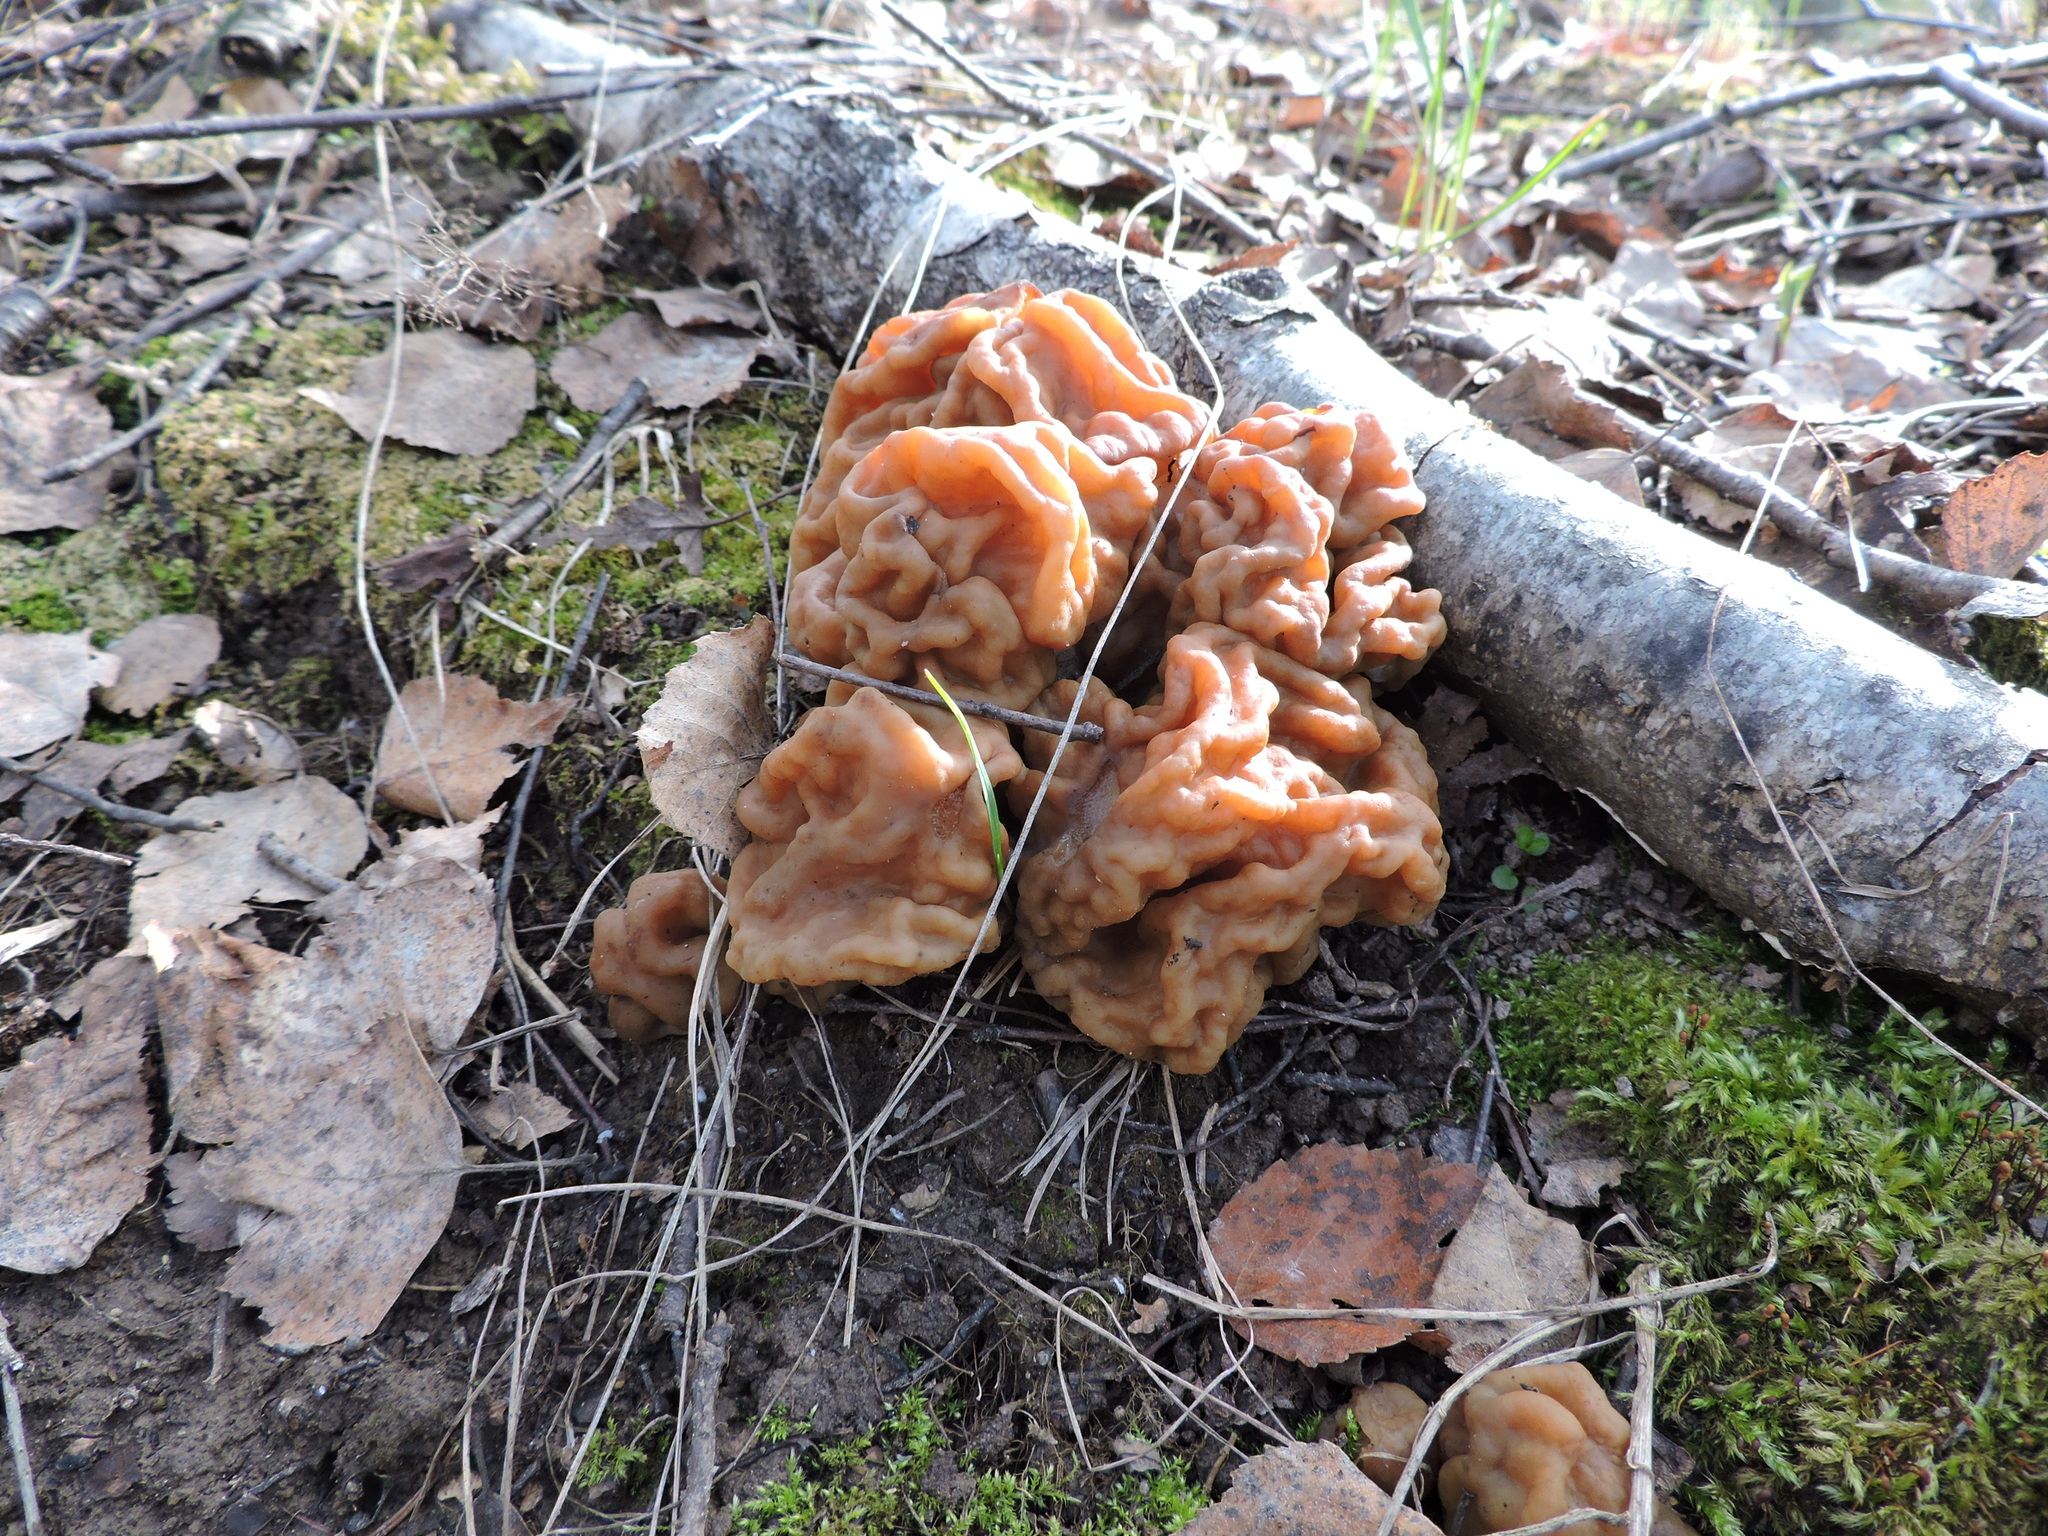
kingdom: Fungi
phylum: Ascomycota
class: Pezizomycetes
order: Pezizales
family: Discinaceae
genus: Gyromitra
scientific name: Gyromitra gigas
